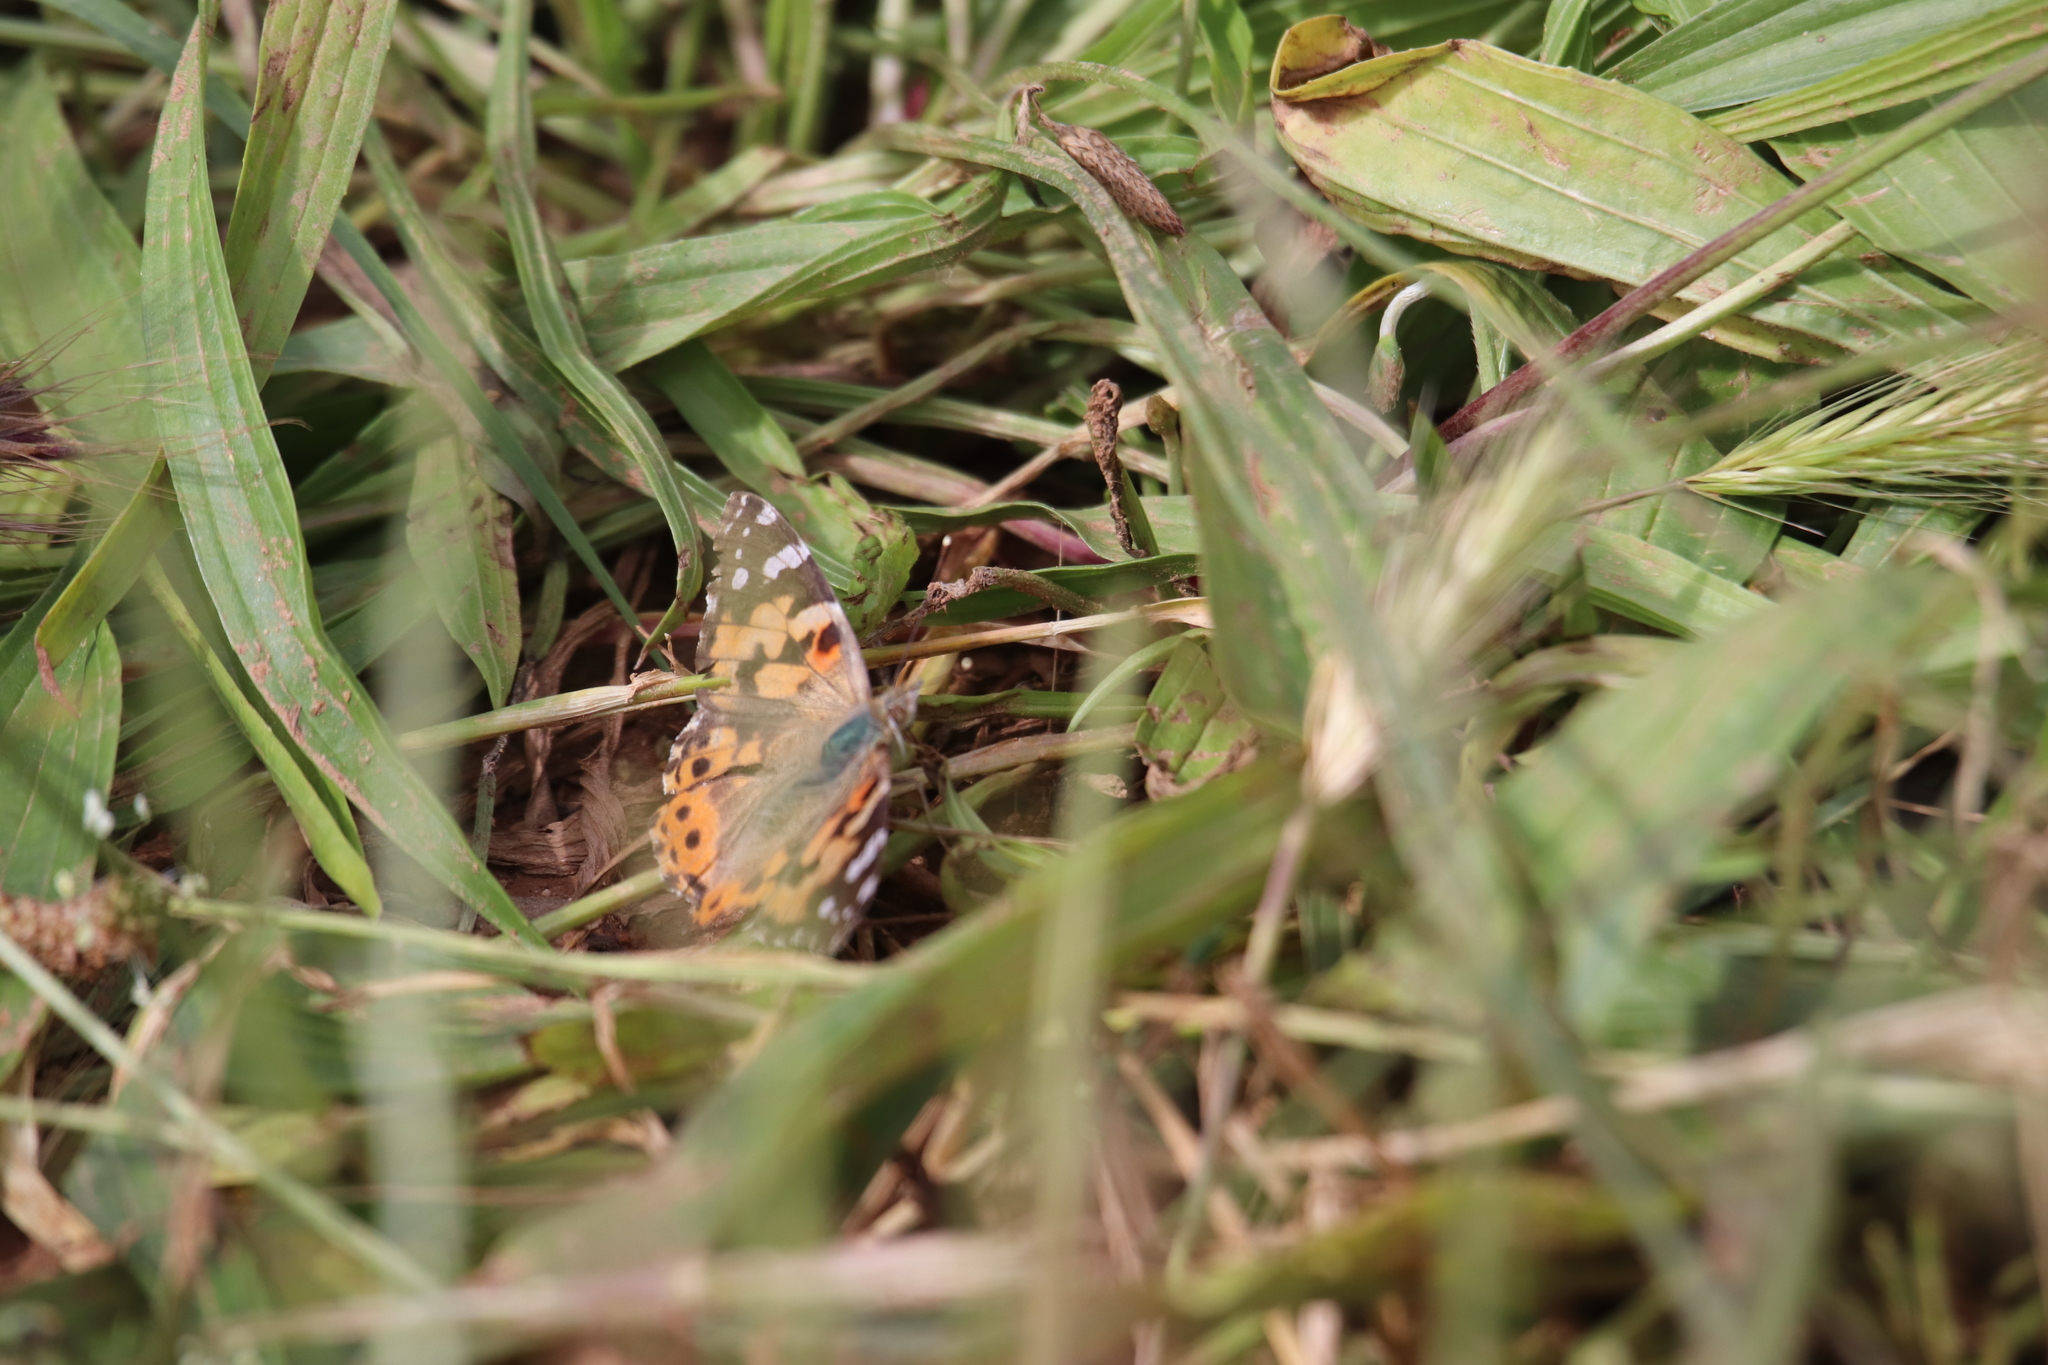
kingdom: Animalia
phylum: Arthropoda
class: Insecta
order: Lepidoptera
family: Nymphalidae
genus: Vanessa
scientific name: Vanessa cardui
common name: Painted lady
